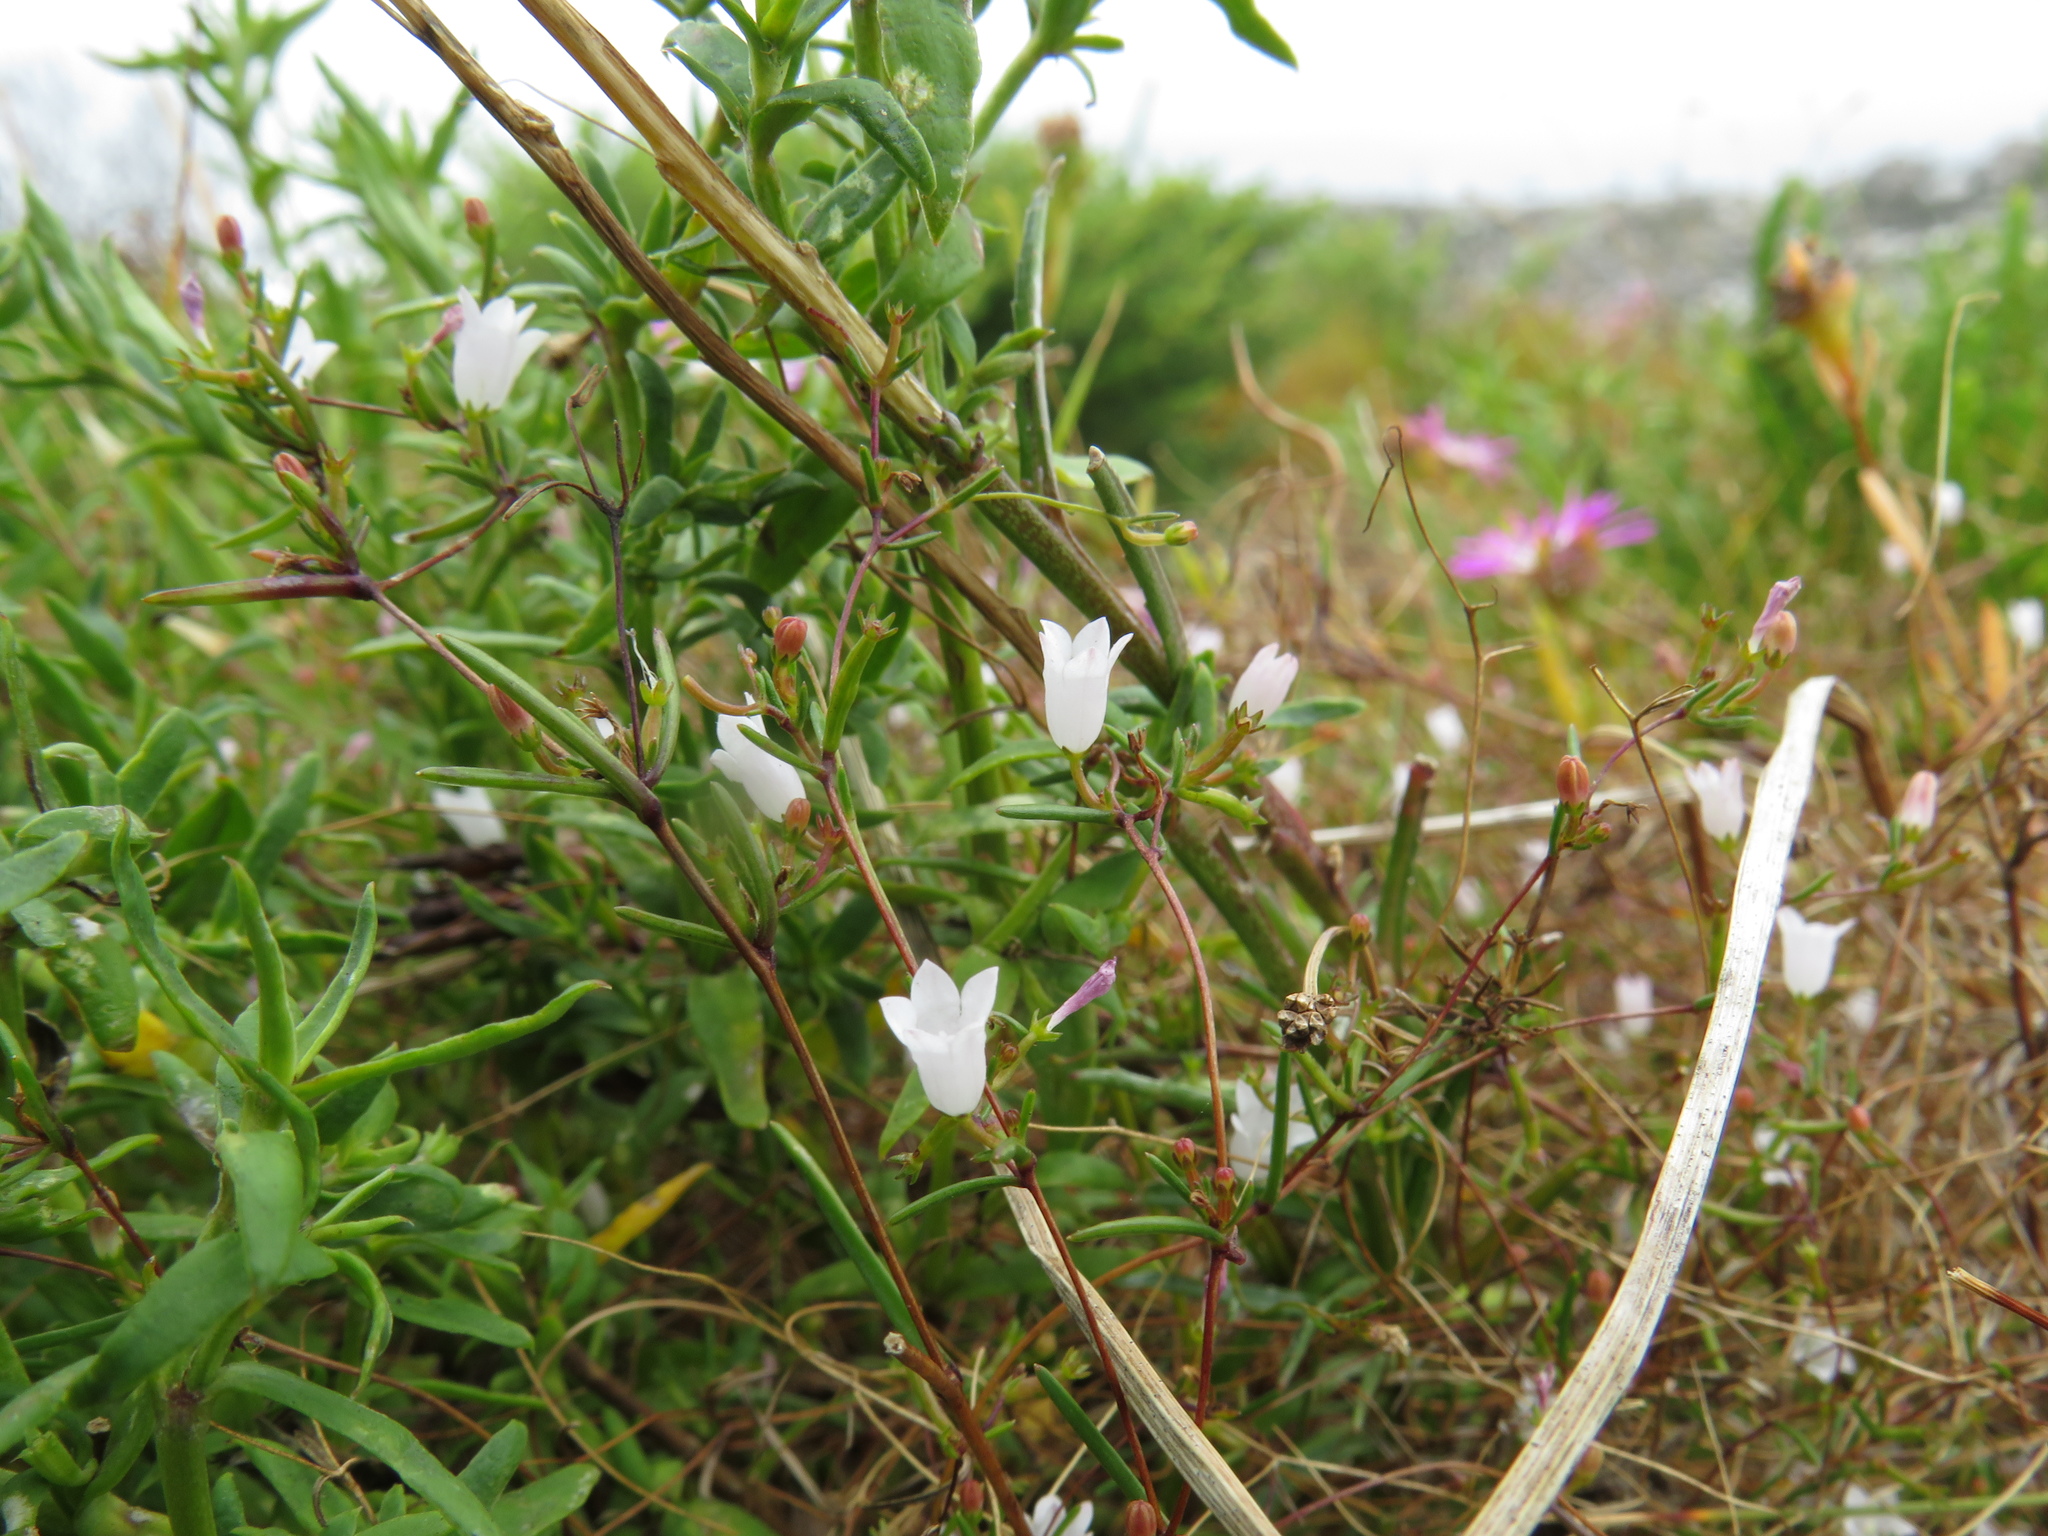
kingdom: Plantae
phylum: Tracheophyta
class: Magnoliopsida
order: Asterales
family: Campanulaceae
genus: Prismatocarpus
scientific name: Prismatocarpus sessilis
